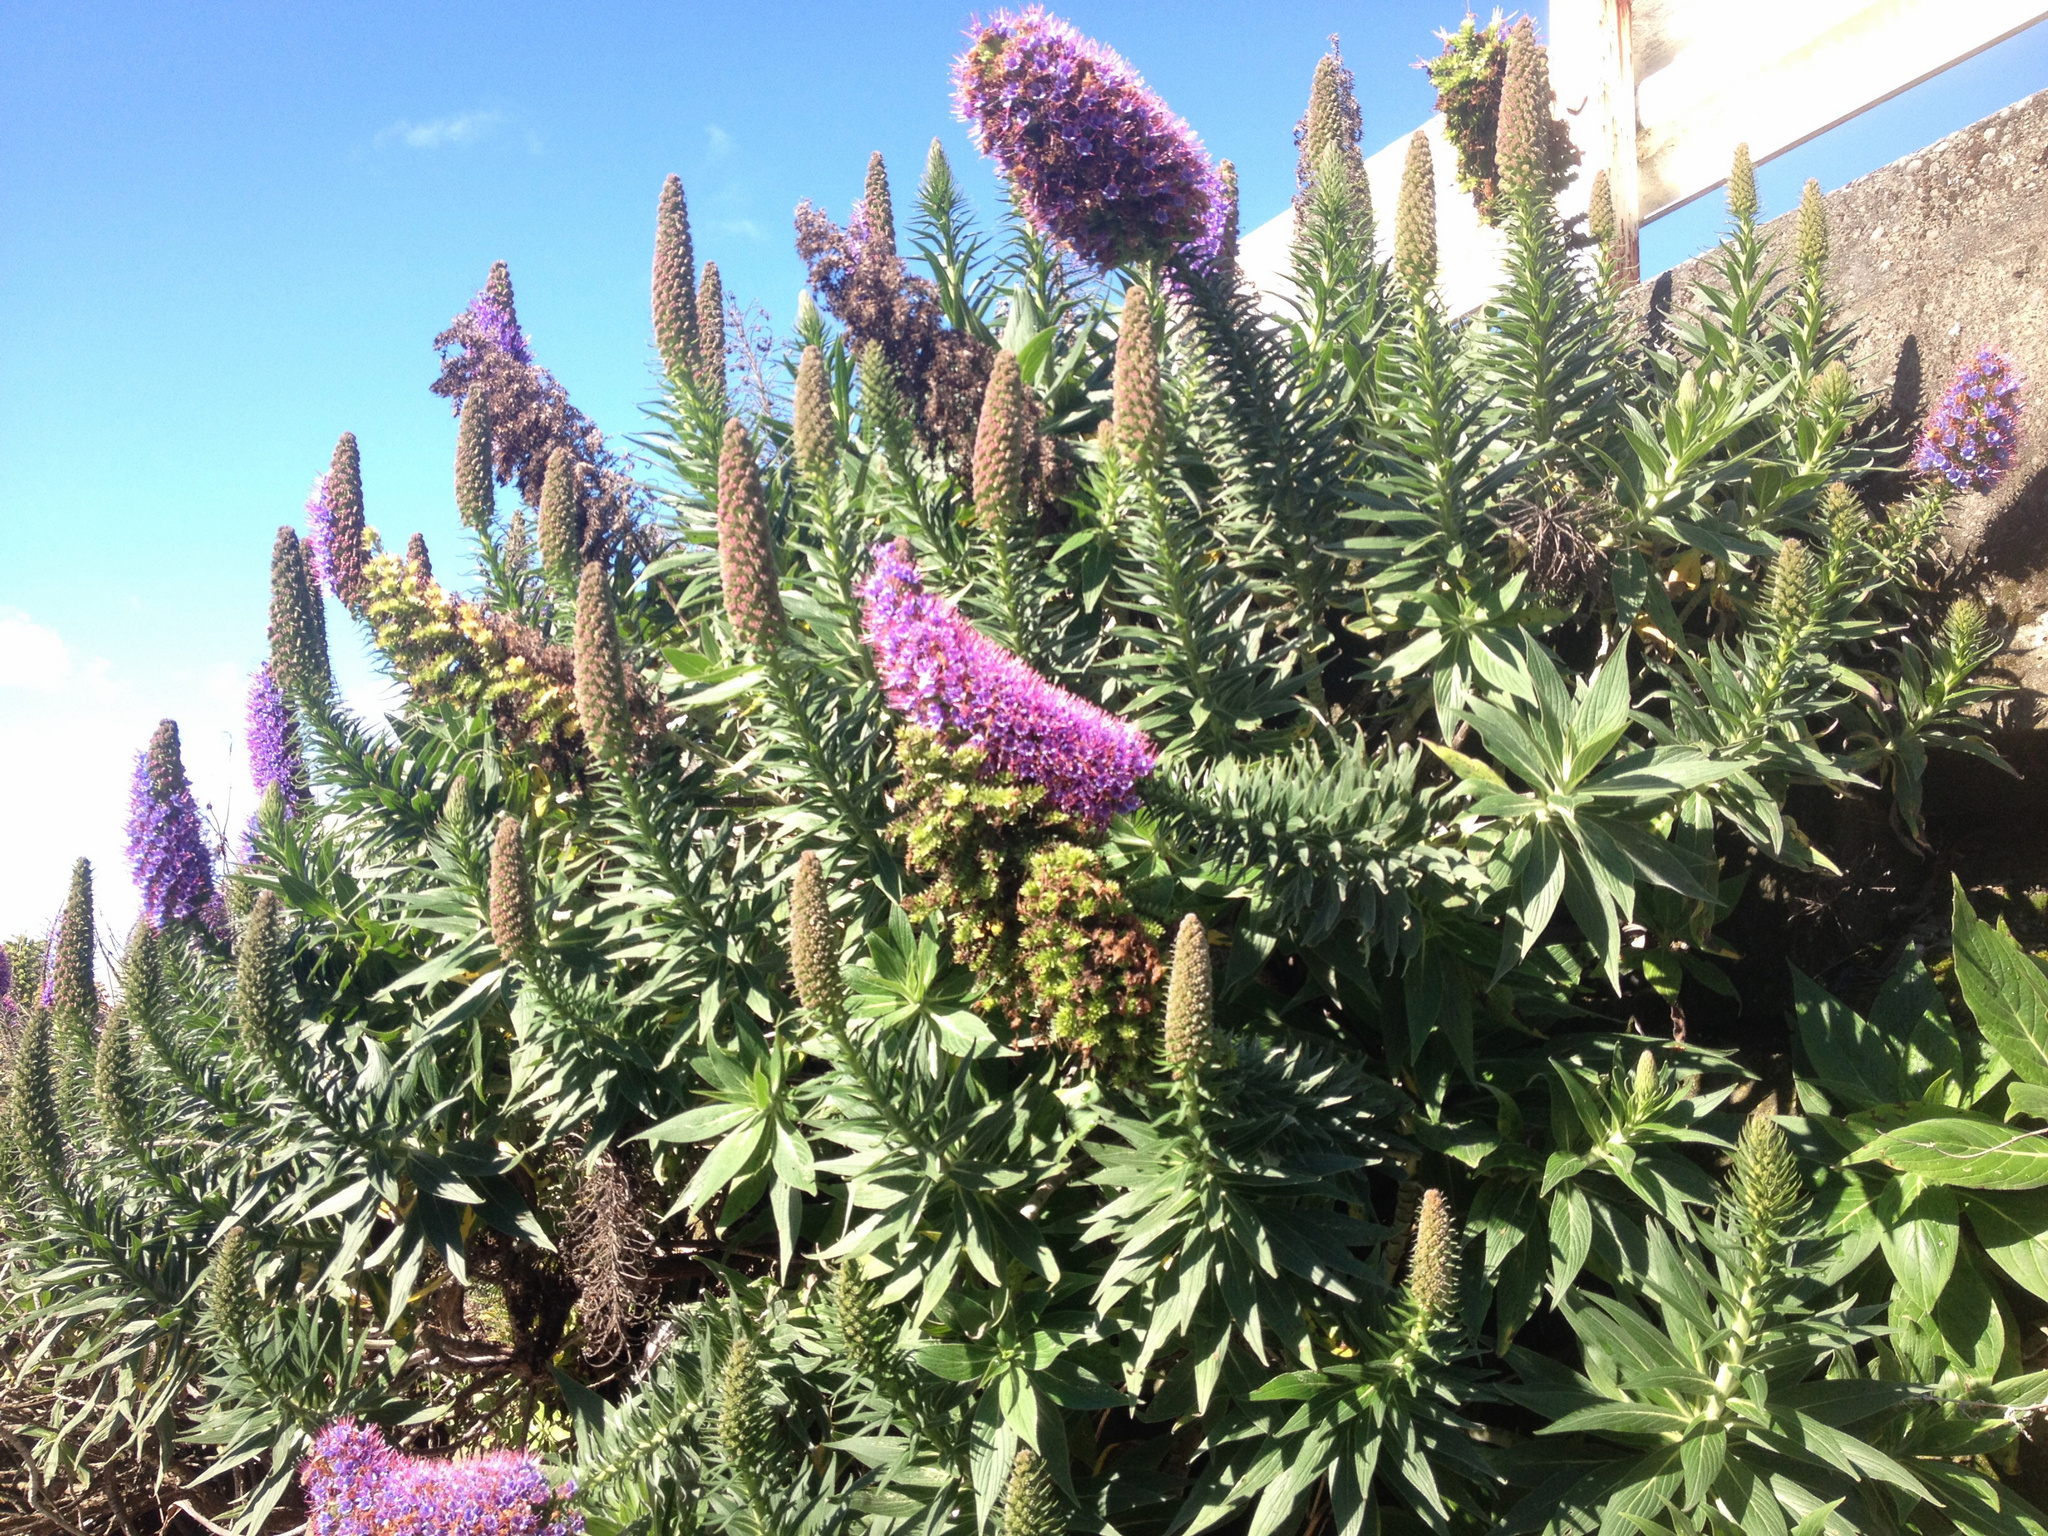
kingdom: Plantae
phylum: Tracheophyta
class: Magnoliopsida
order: Boraginales
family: Boraginaceae
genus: Echium
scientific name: Echium candicans
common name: Pride of madeira
